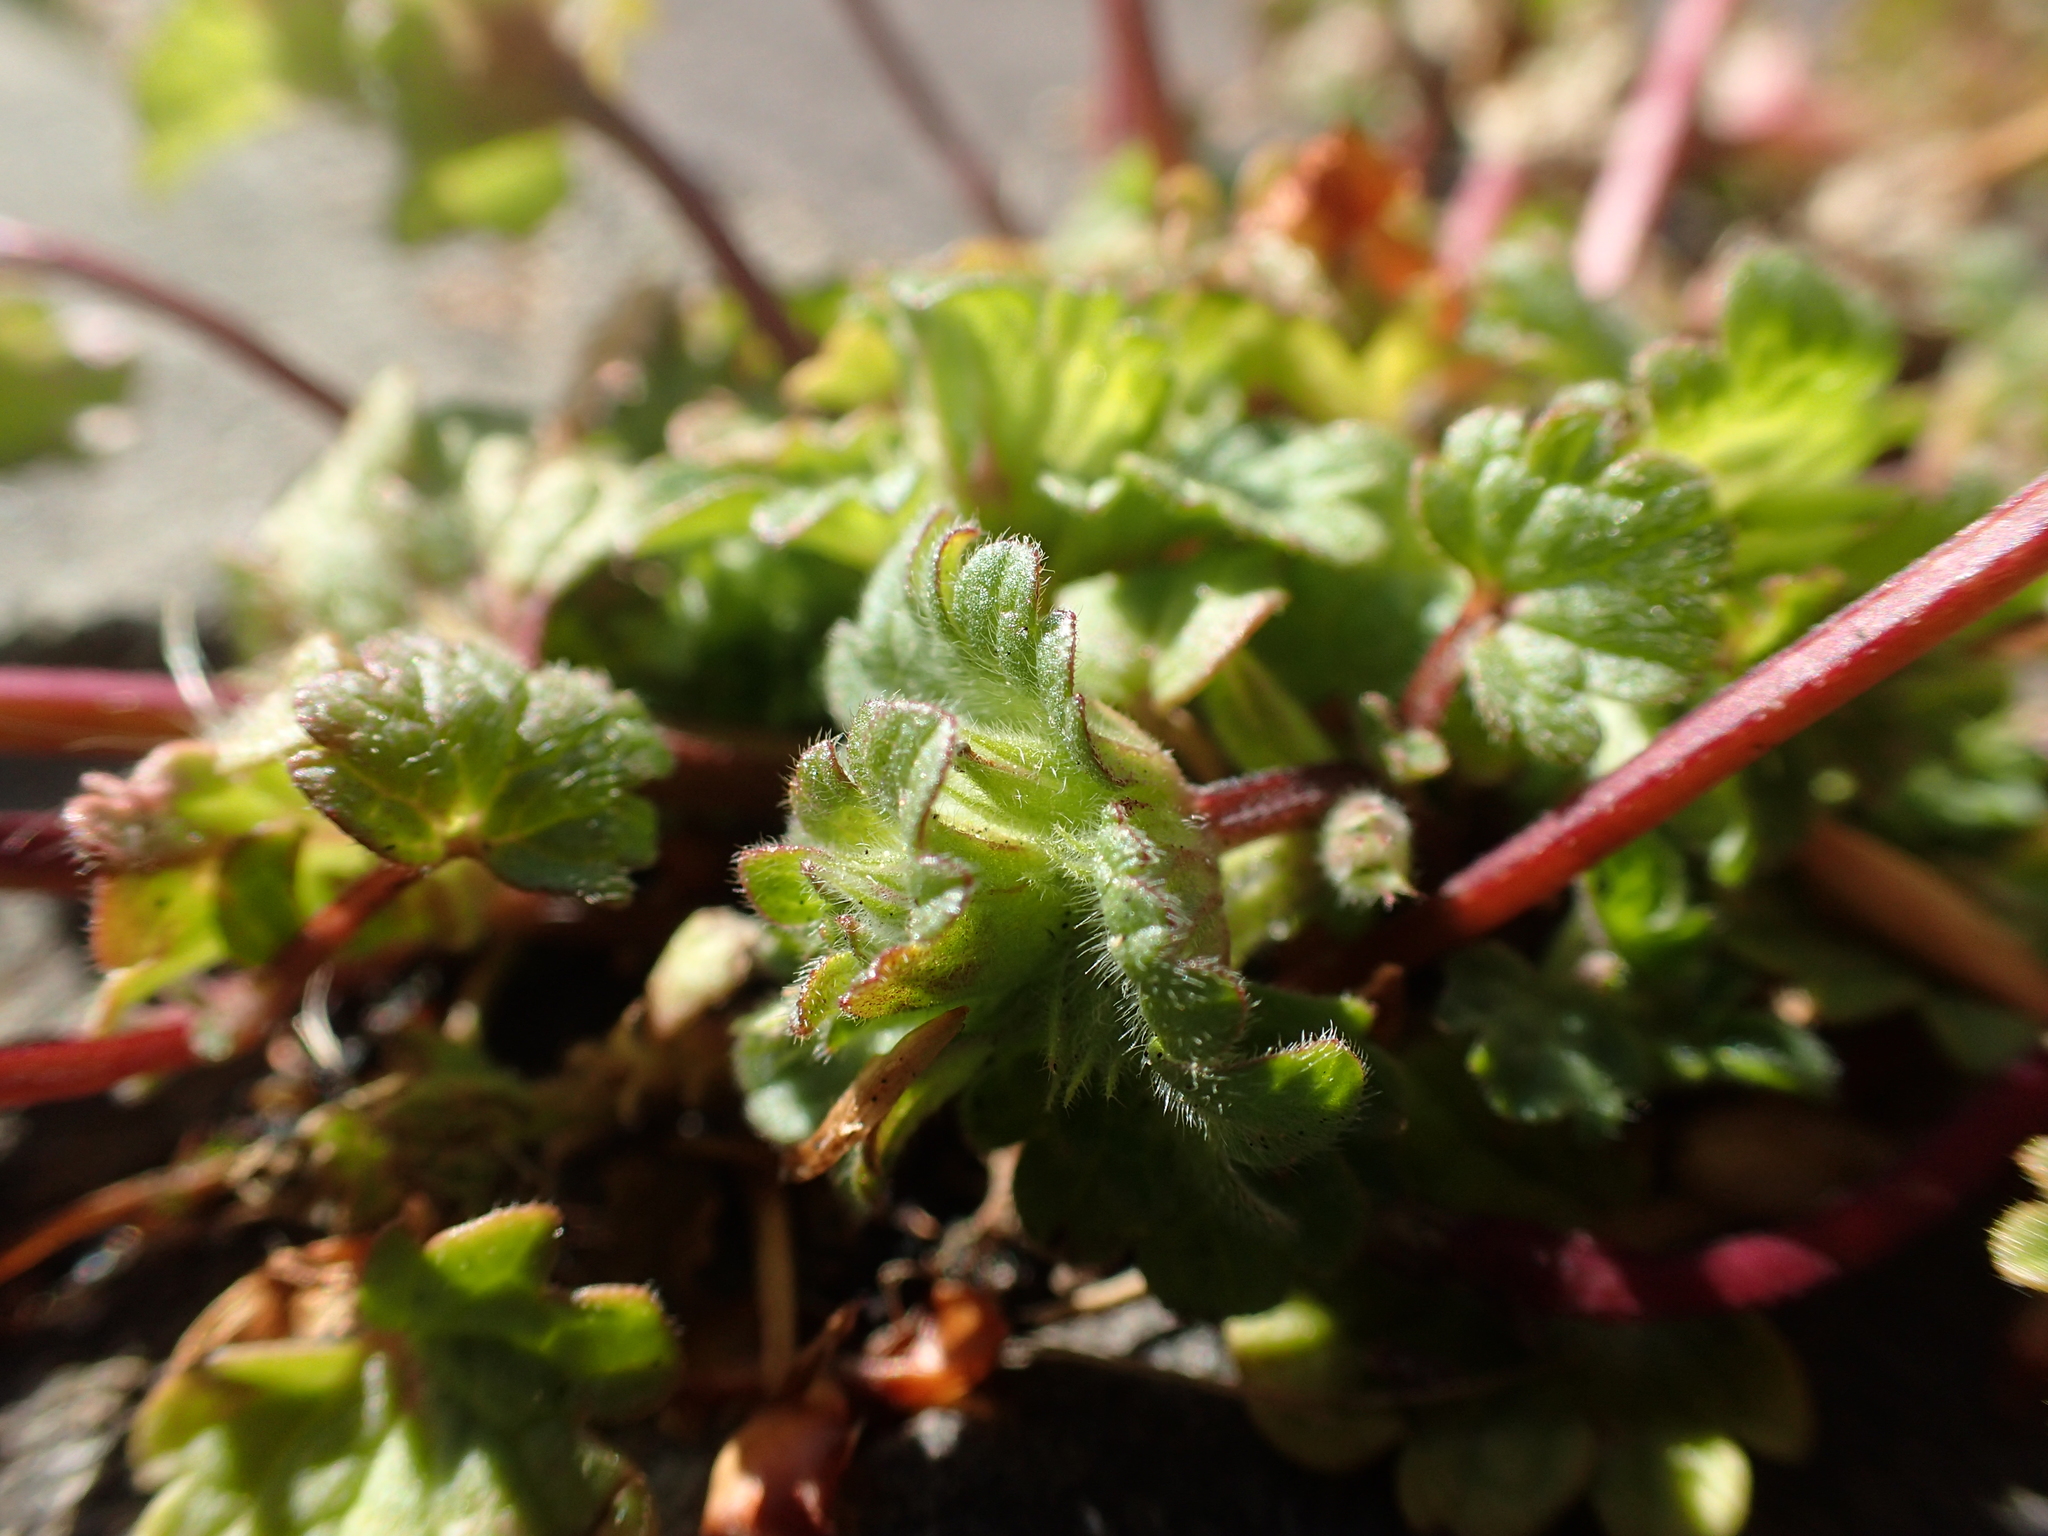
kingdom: Plantae
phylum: Tracheophyta
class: Magnoliopsida
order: Lamiales
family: Lamiaceae
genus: Lamium
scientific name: Lamium amplexicaule
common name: Henbit dead-nettle
